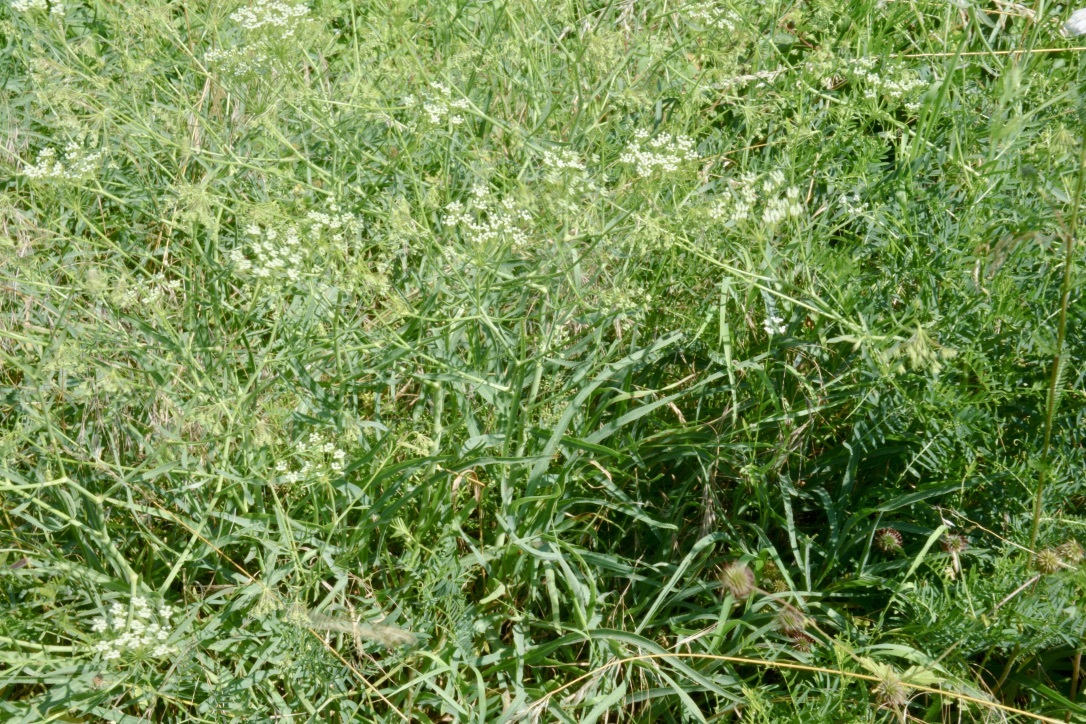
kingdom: Plantae
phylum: Tracheophyta
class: Magnoliopsida
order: Apiales
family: Apiaceae
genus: Falcaria
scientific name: Falcaria vulgaris
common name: Longleaf
